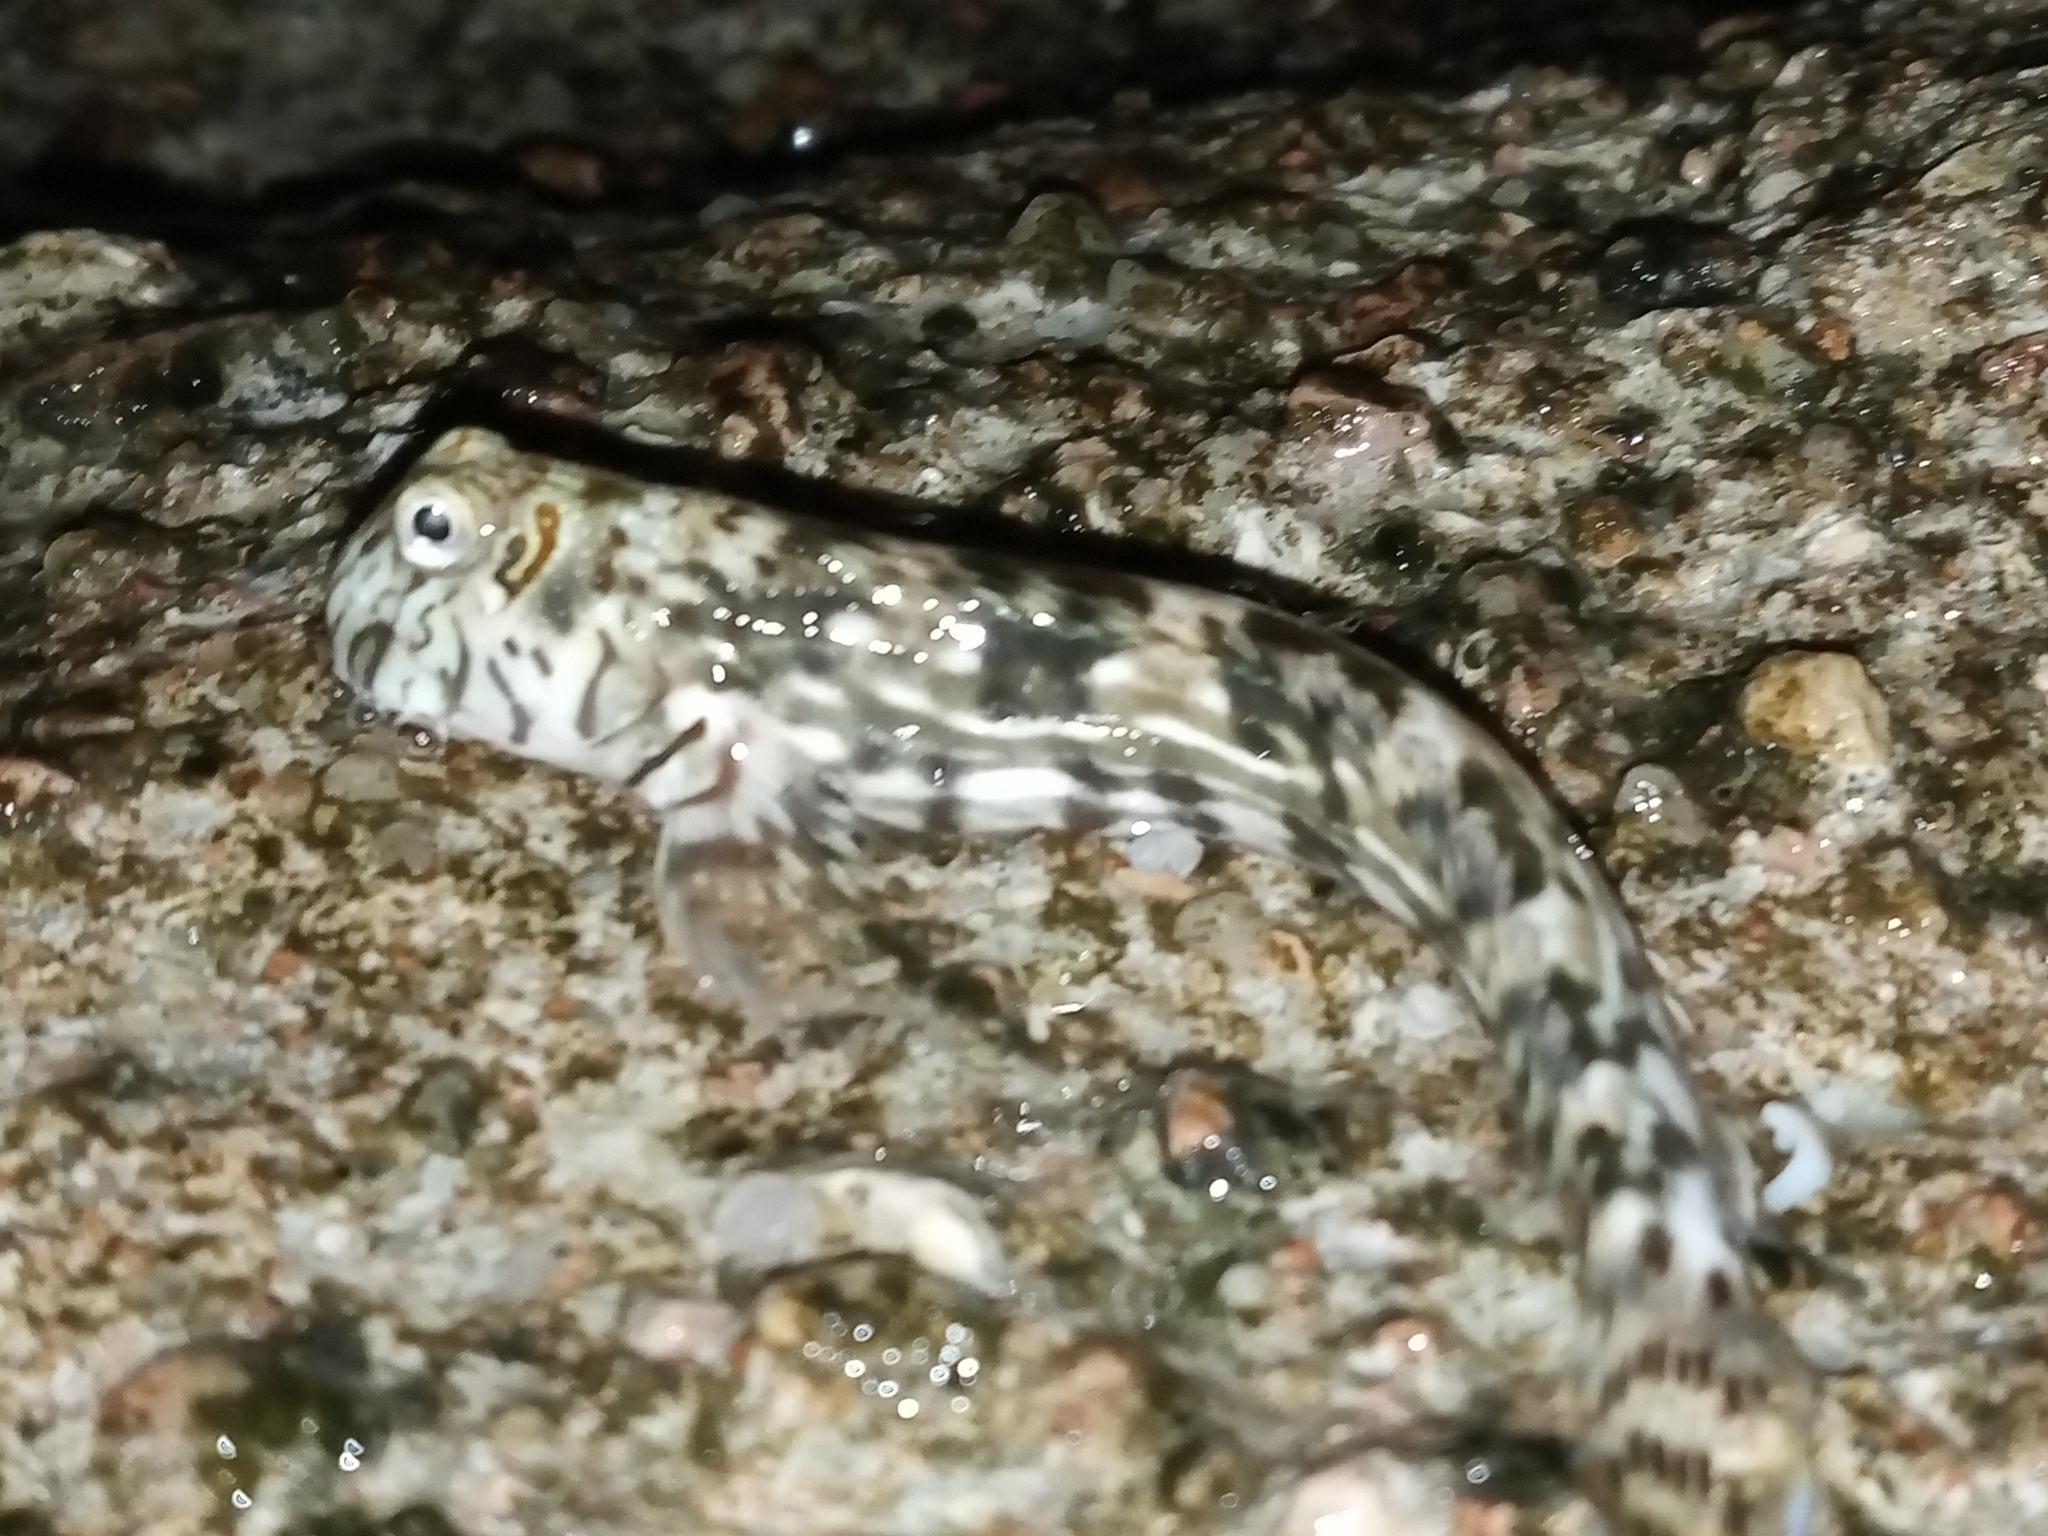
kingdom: Animalia
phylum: Chordata
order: Perciformes
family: Blenniidae
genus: Istiblennius
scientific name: Istiblennius unicolor
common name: Pallid rockskipper
